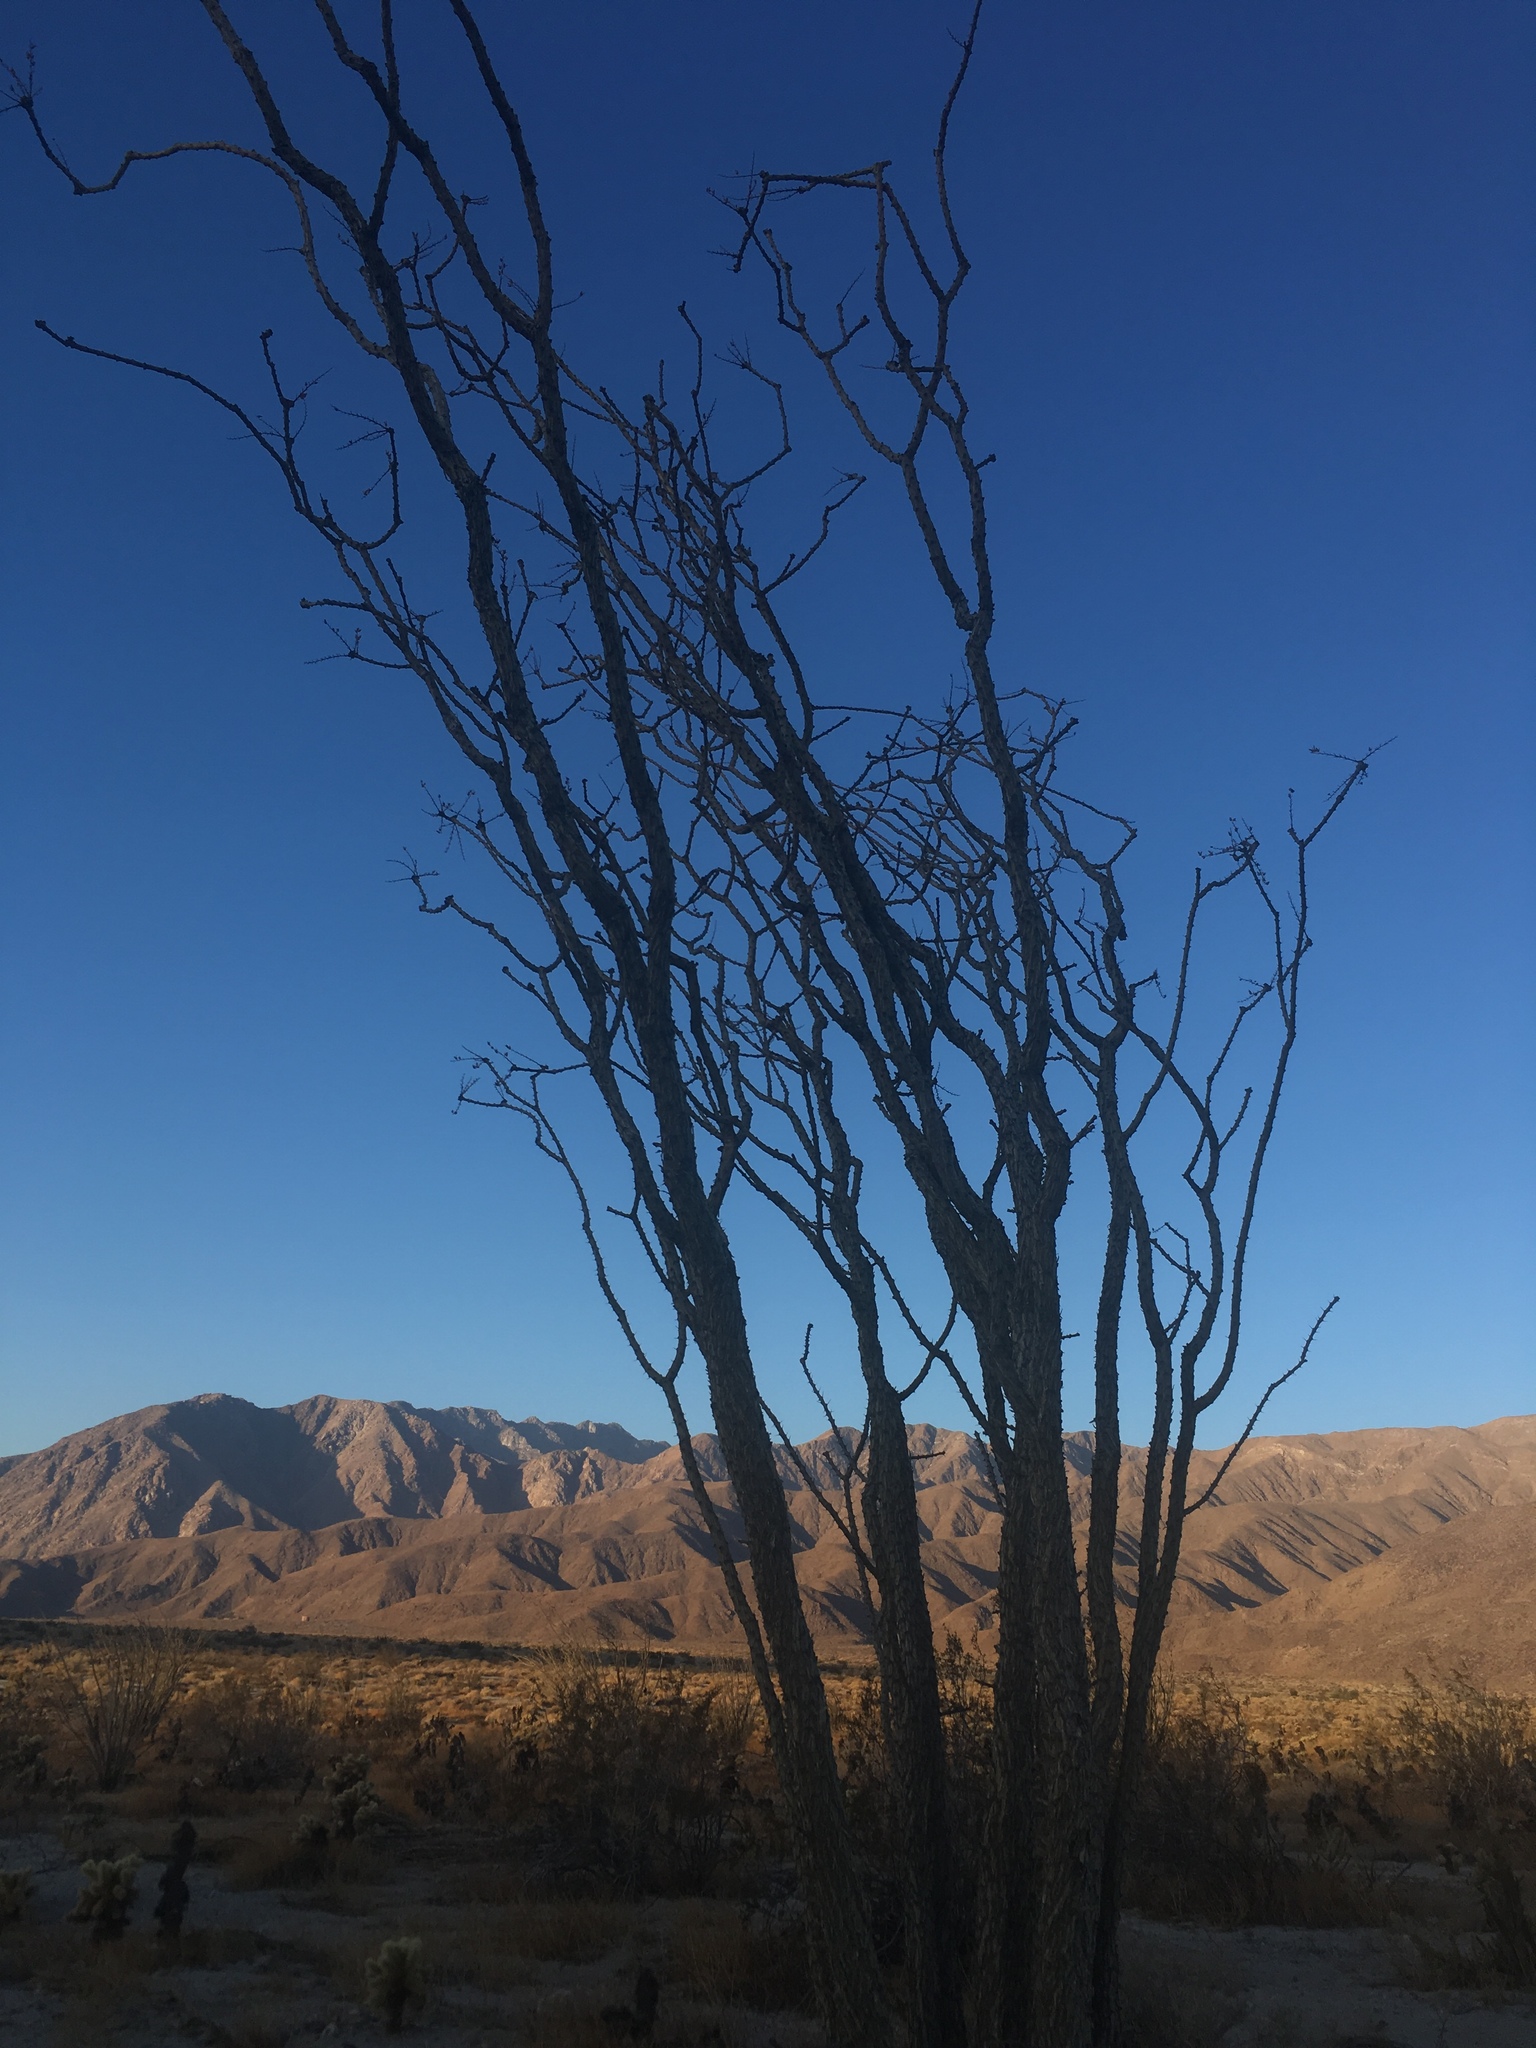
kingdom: Plantae
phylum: Tracheophyta
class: Magnoliopsida
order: Ericales
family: Fouquieriaceae
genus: Fouquieria
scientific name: Fouquieria splendens
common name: Vine-cactus
